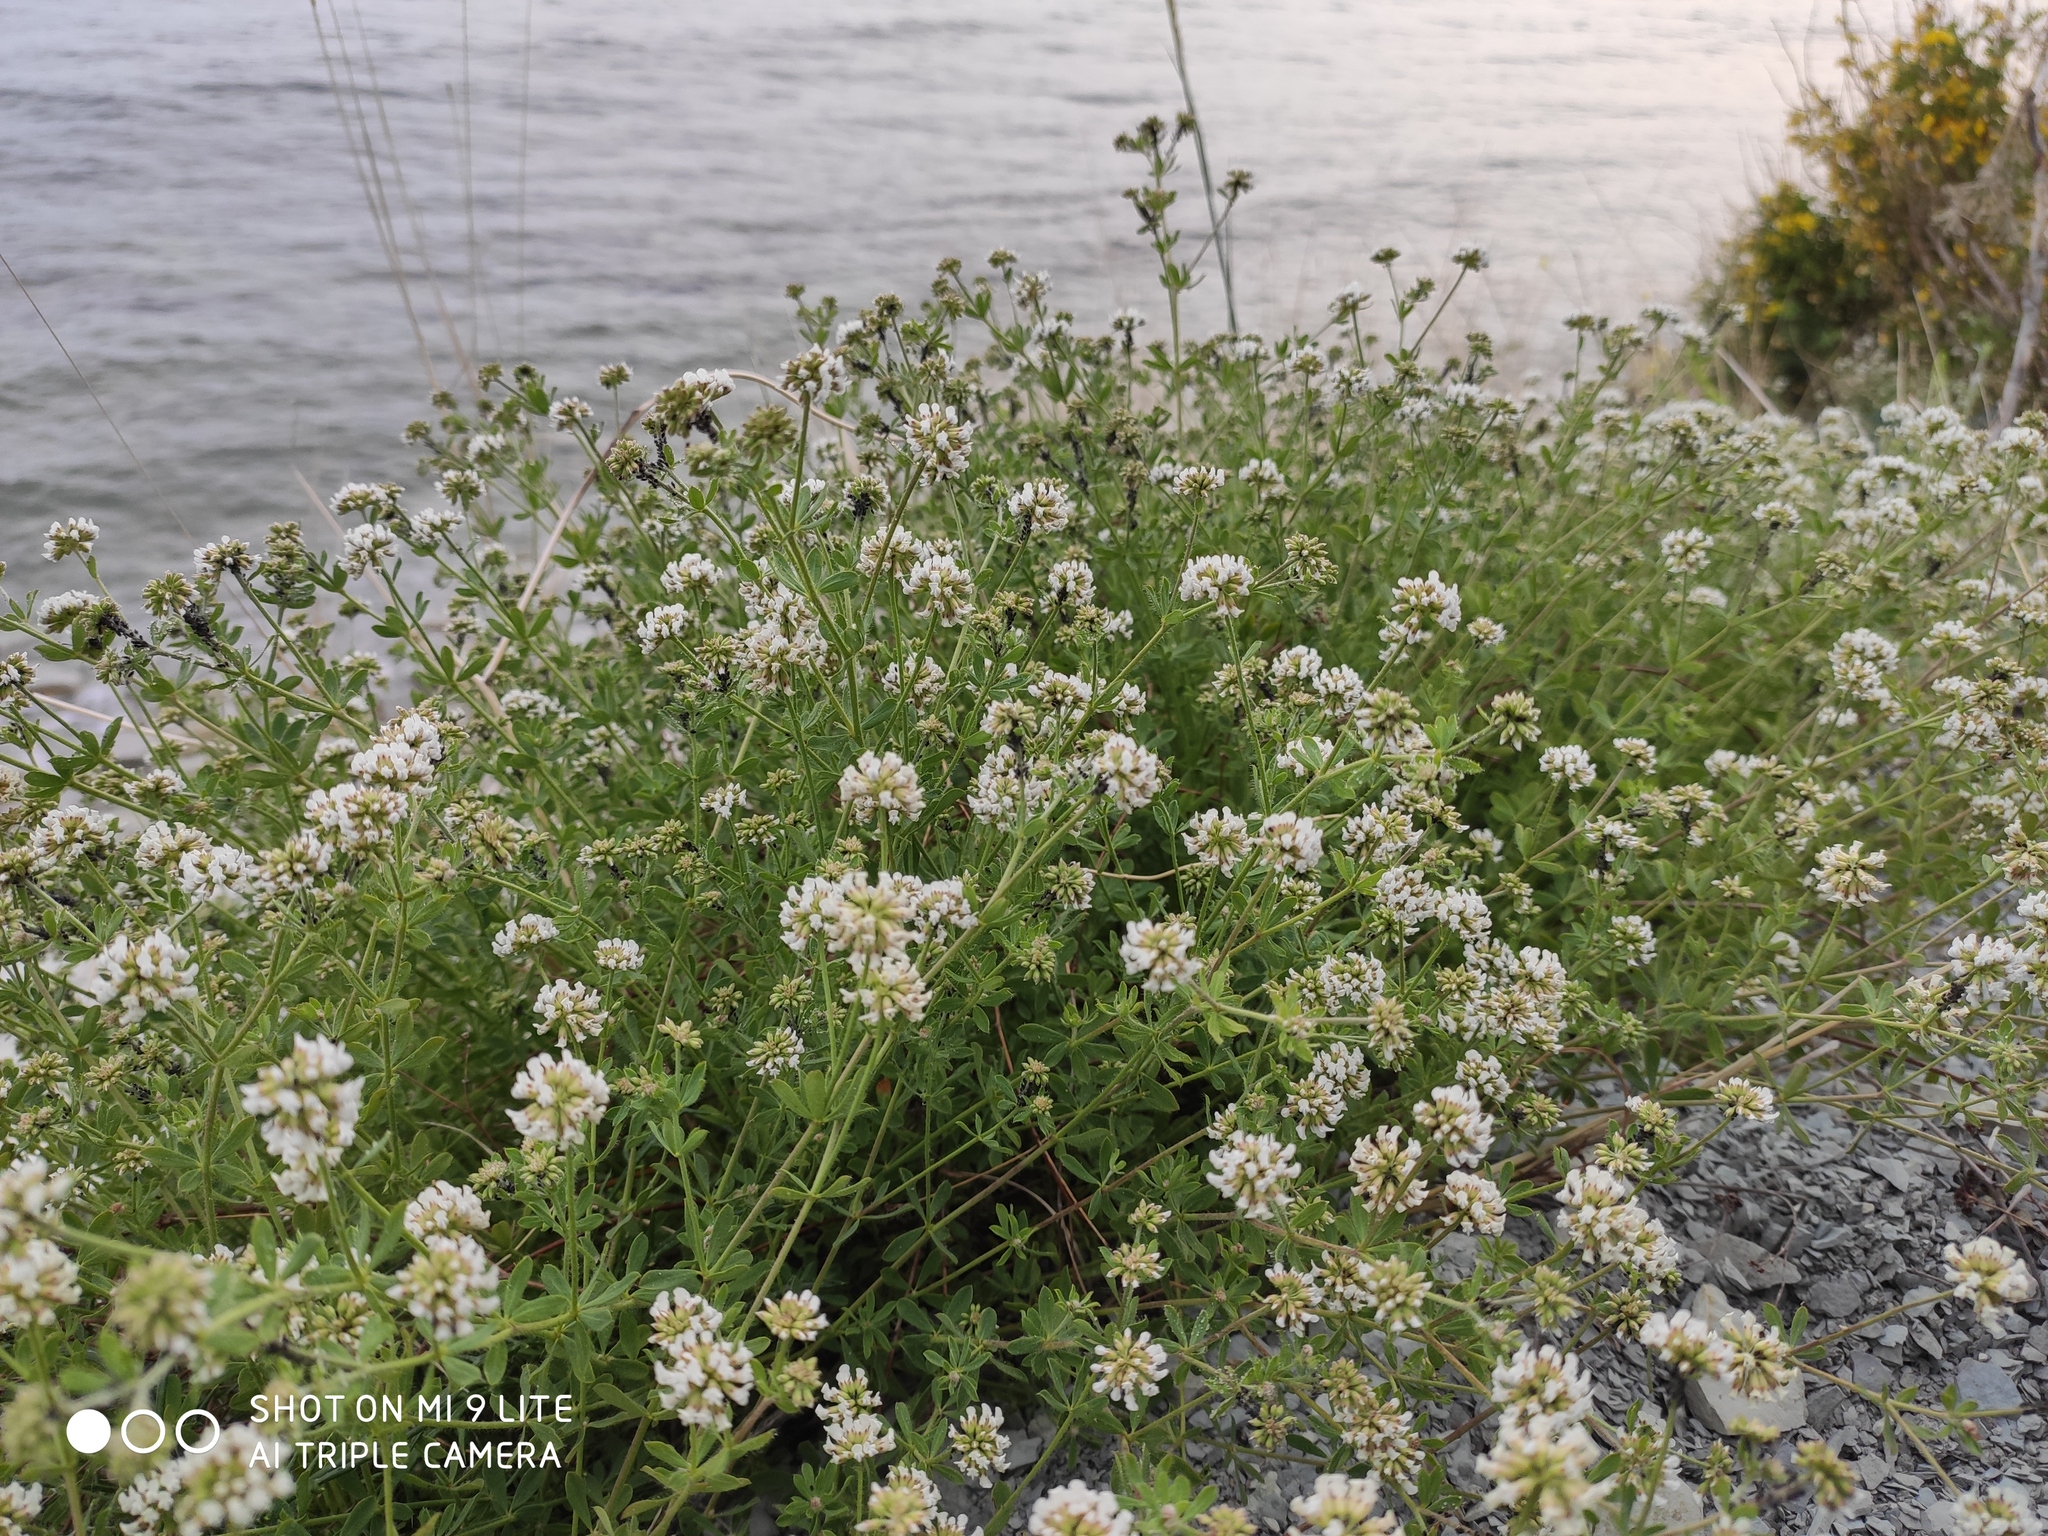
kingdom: Plantae
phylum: Tracheophyta
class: Magnoliopsida
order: Fabales
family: Fabaceae
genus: Lotus
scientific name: Lotus herbaceus
